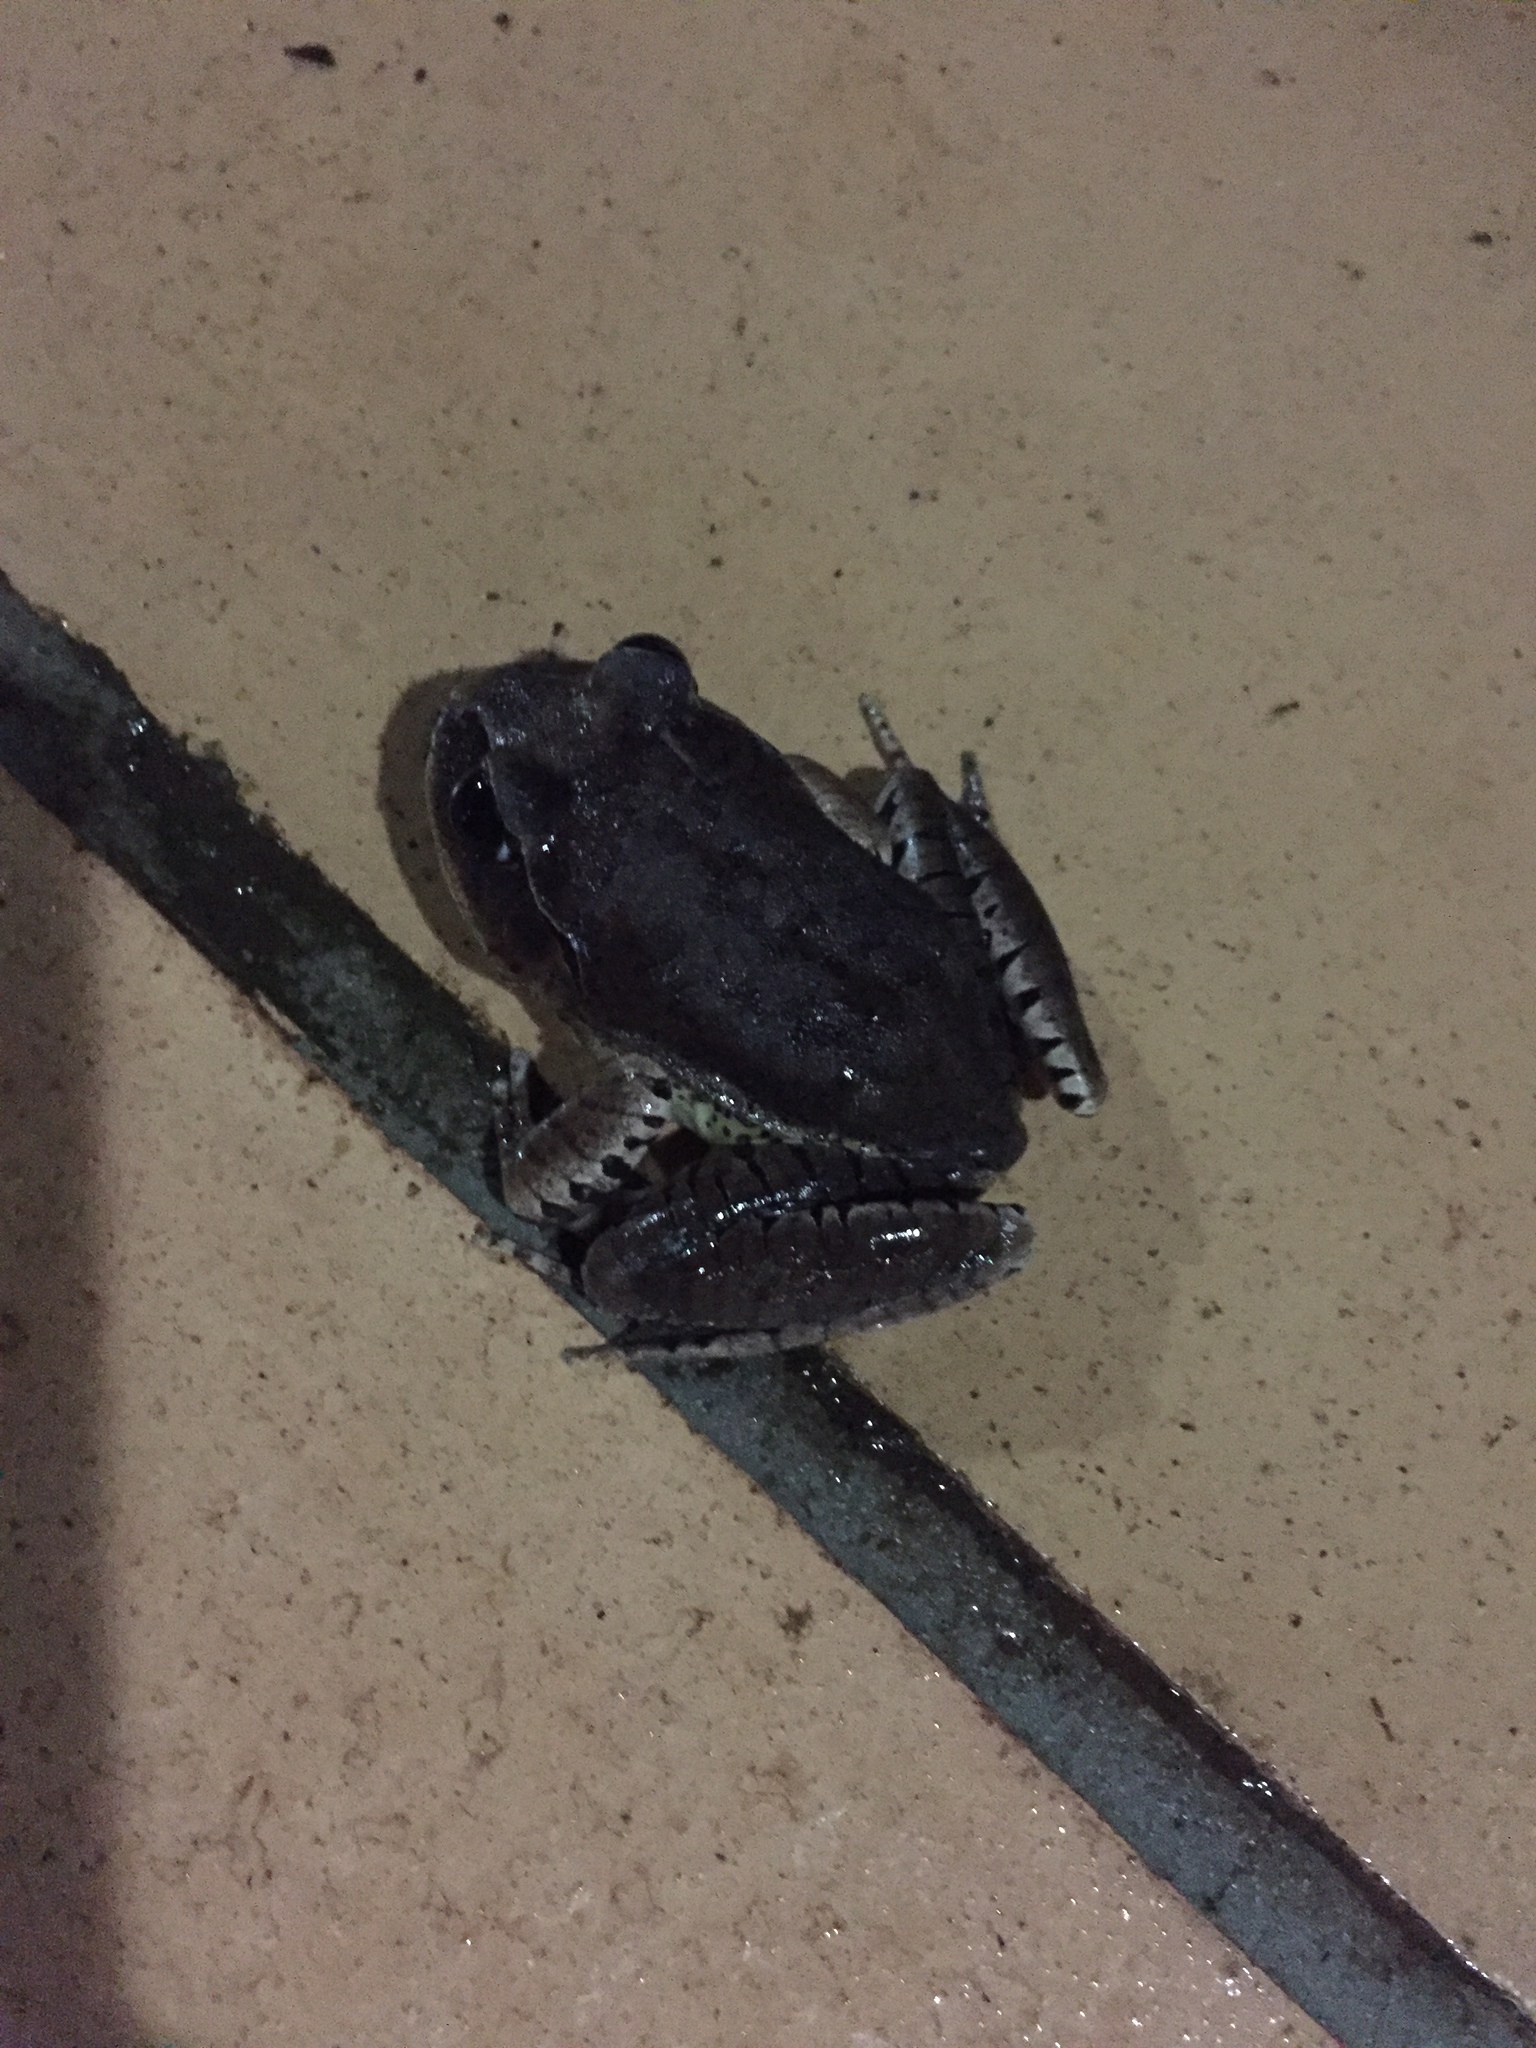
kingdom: Animalia
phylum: Chordata
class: Amphibia
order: Anura
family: Myobatrachidae
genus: Mixophyes
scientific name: Mixophyes fasciolatus
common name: Great barred river-frog
